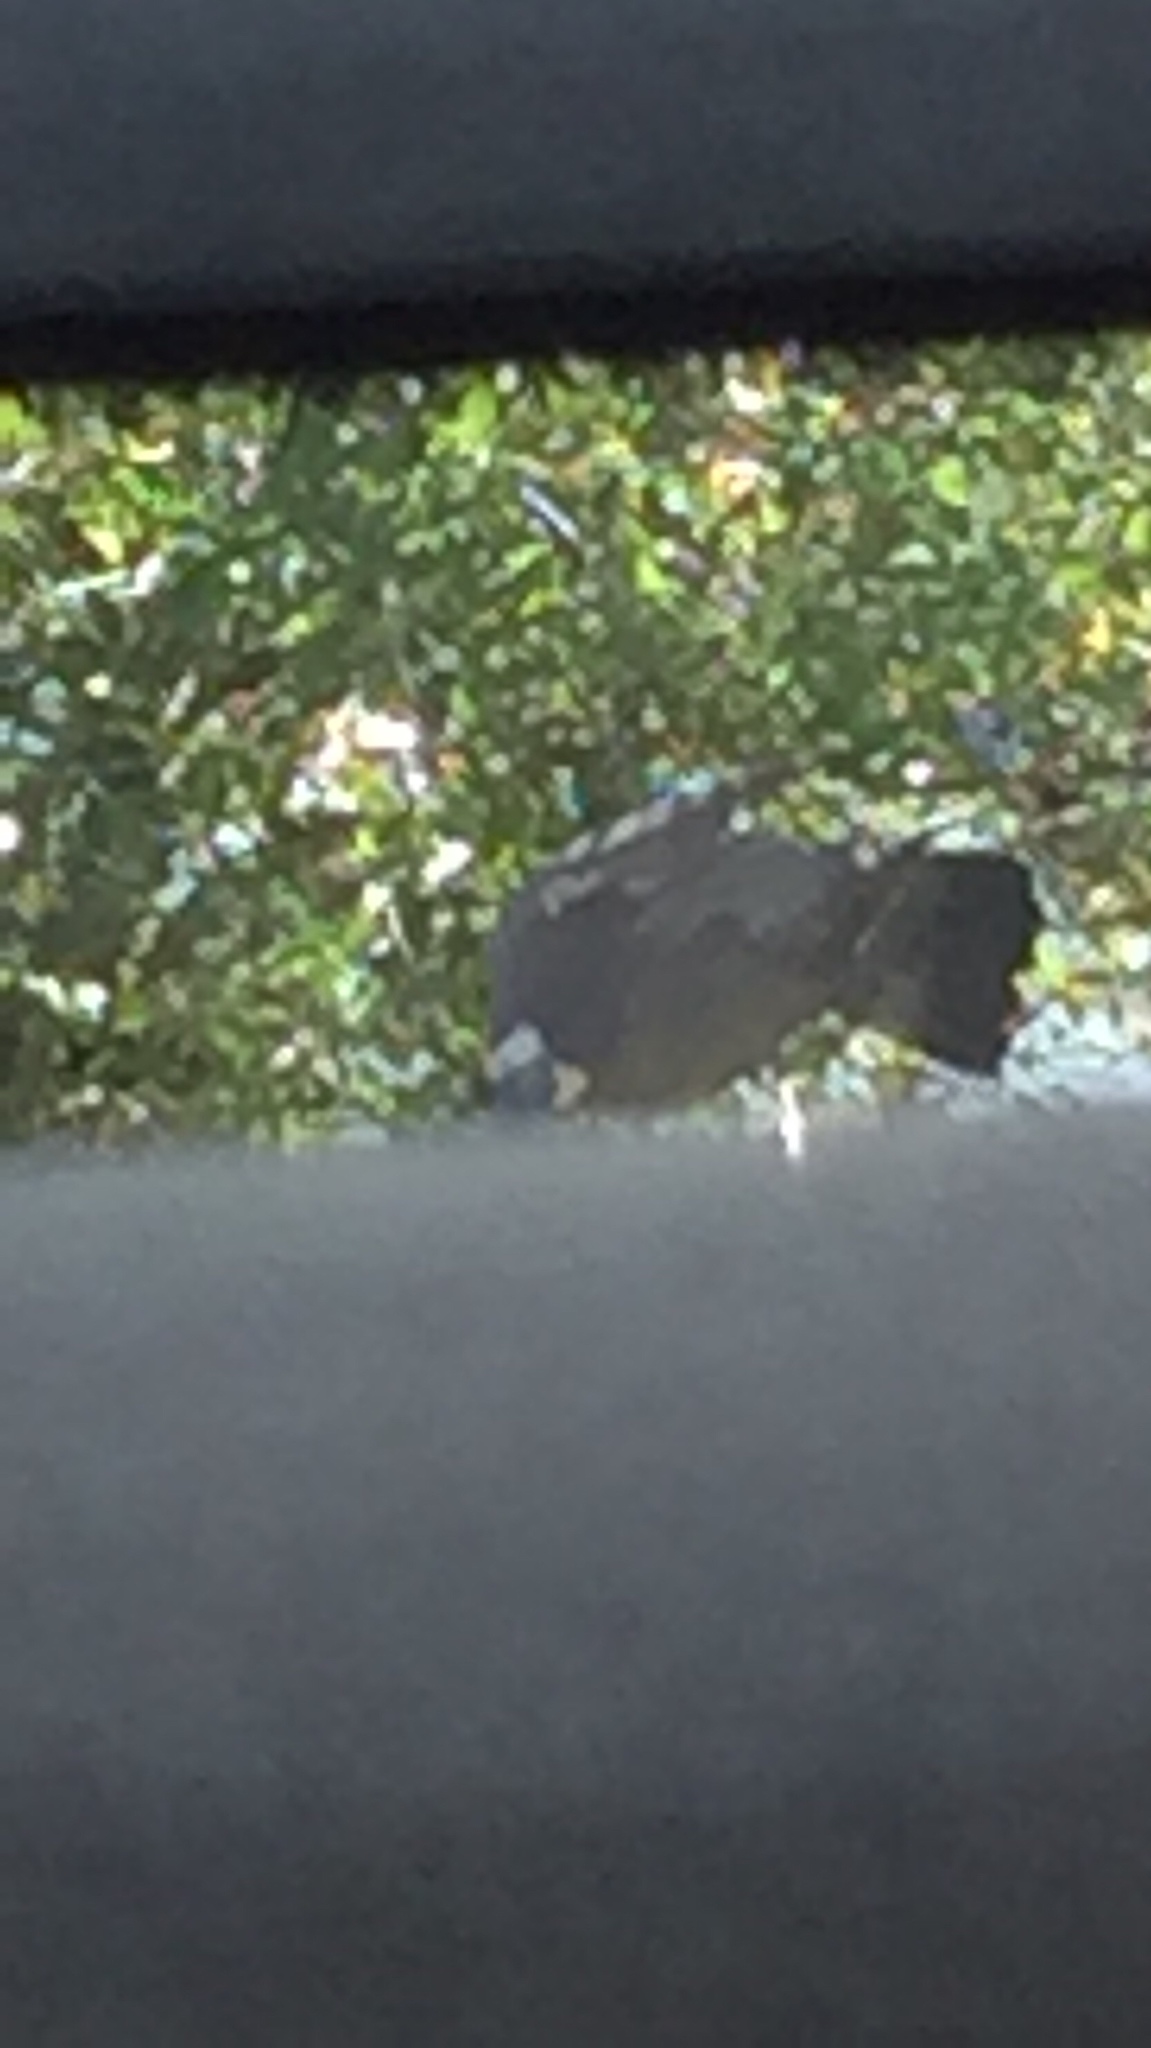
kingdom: Animalia
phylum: Chordata
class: Aves
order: Columbiformes
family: Columbidae
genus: Columba
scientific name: Columba palumbus
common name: Common wood pigeon
